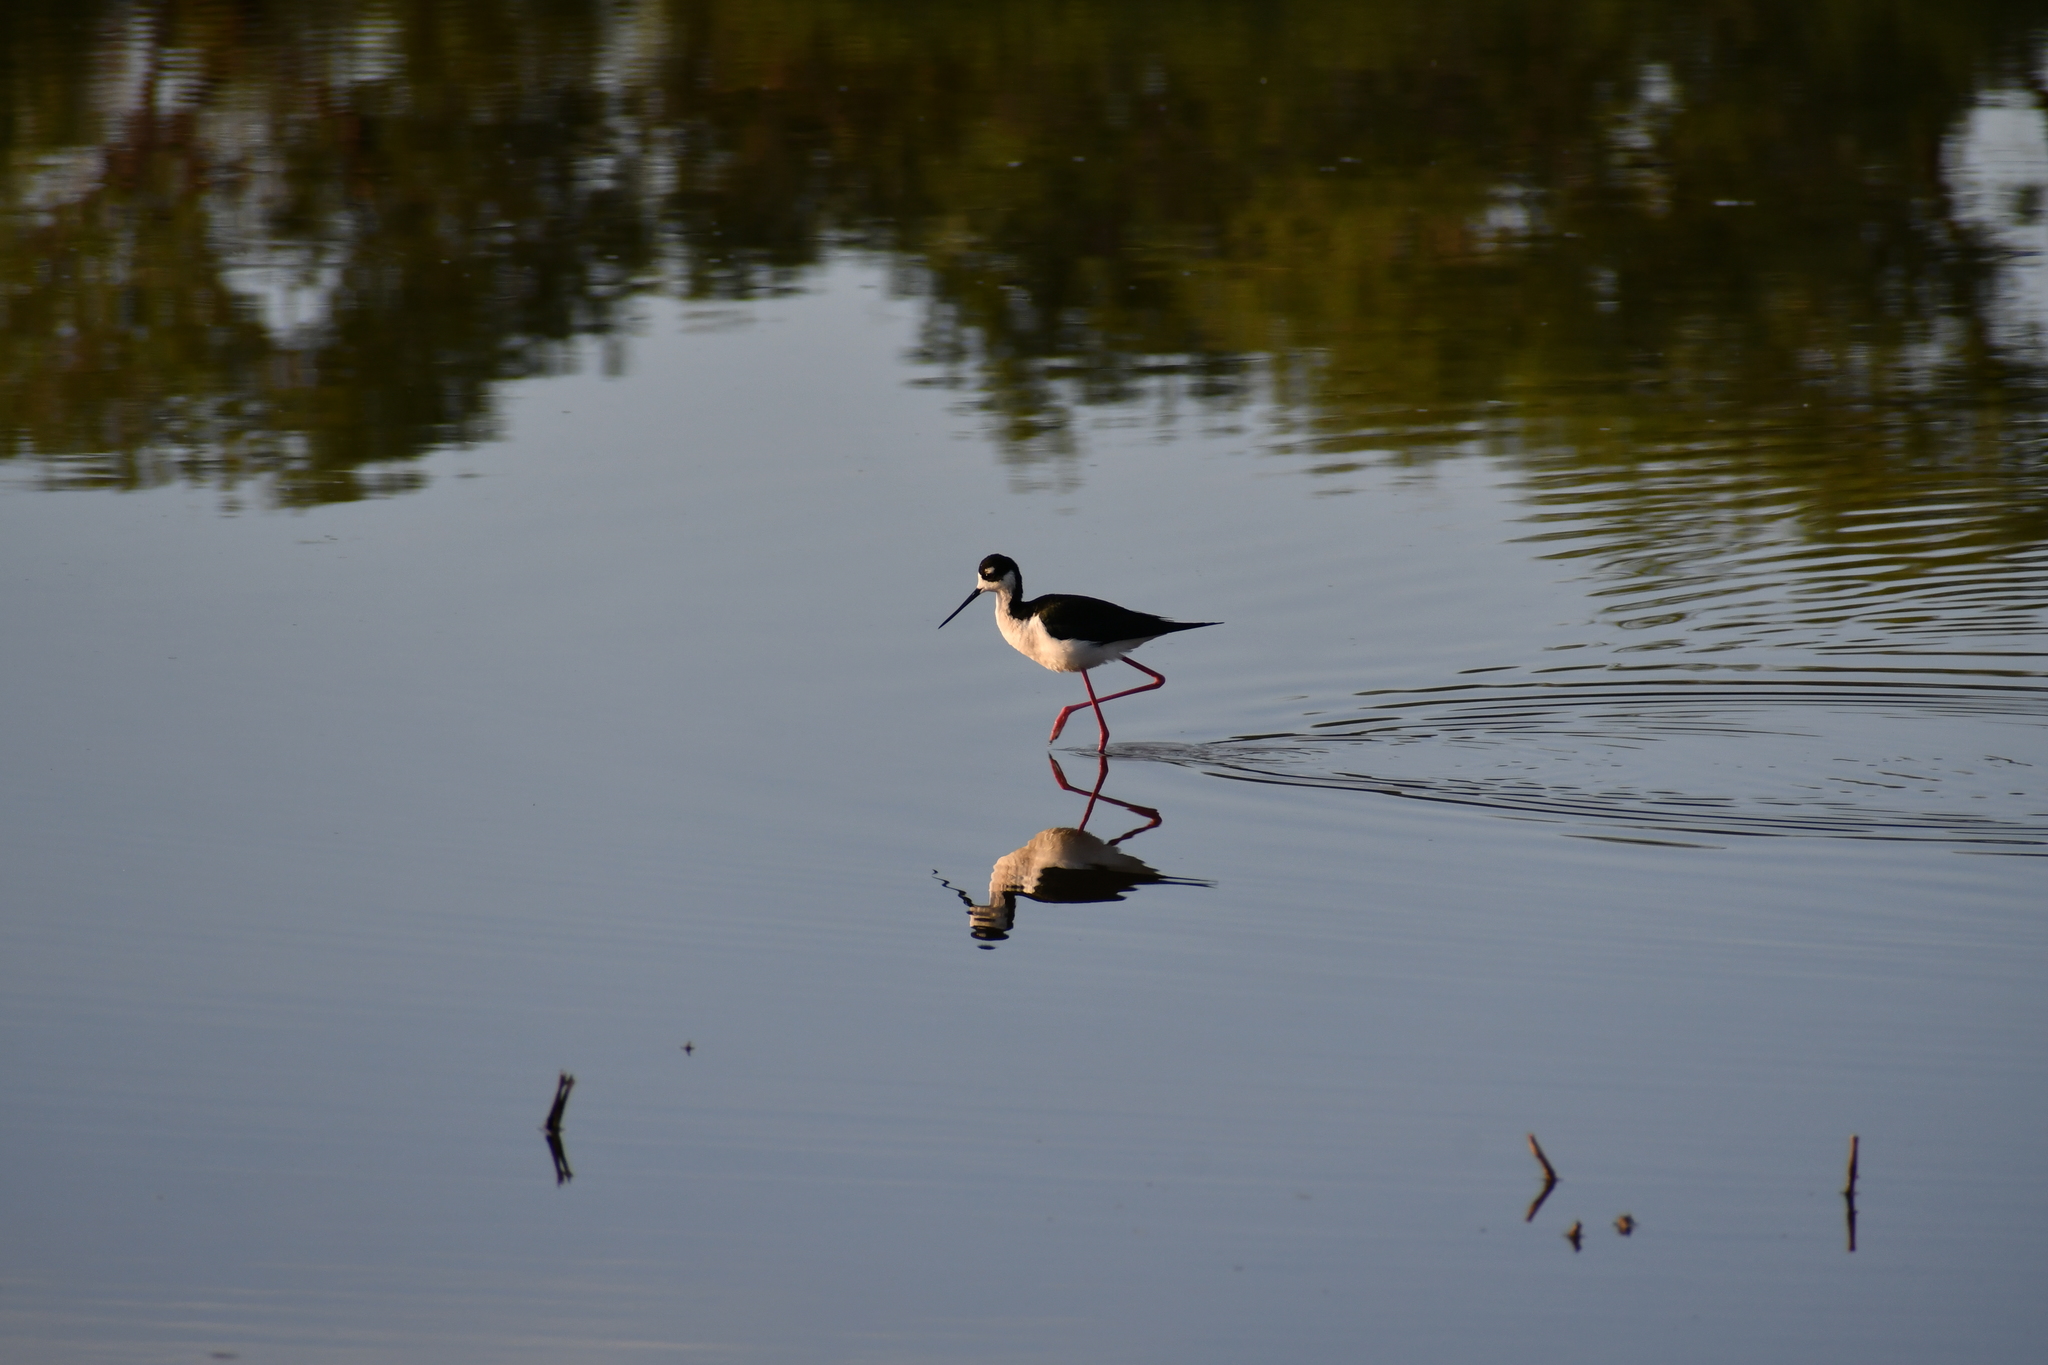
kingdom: Animalia
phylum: Chordata
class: Aves
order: Charadriiformes
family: Recurvirostridae
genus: Himantopus
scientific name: Himantopus mexicanus
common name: Black-necked stilt
